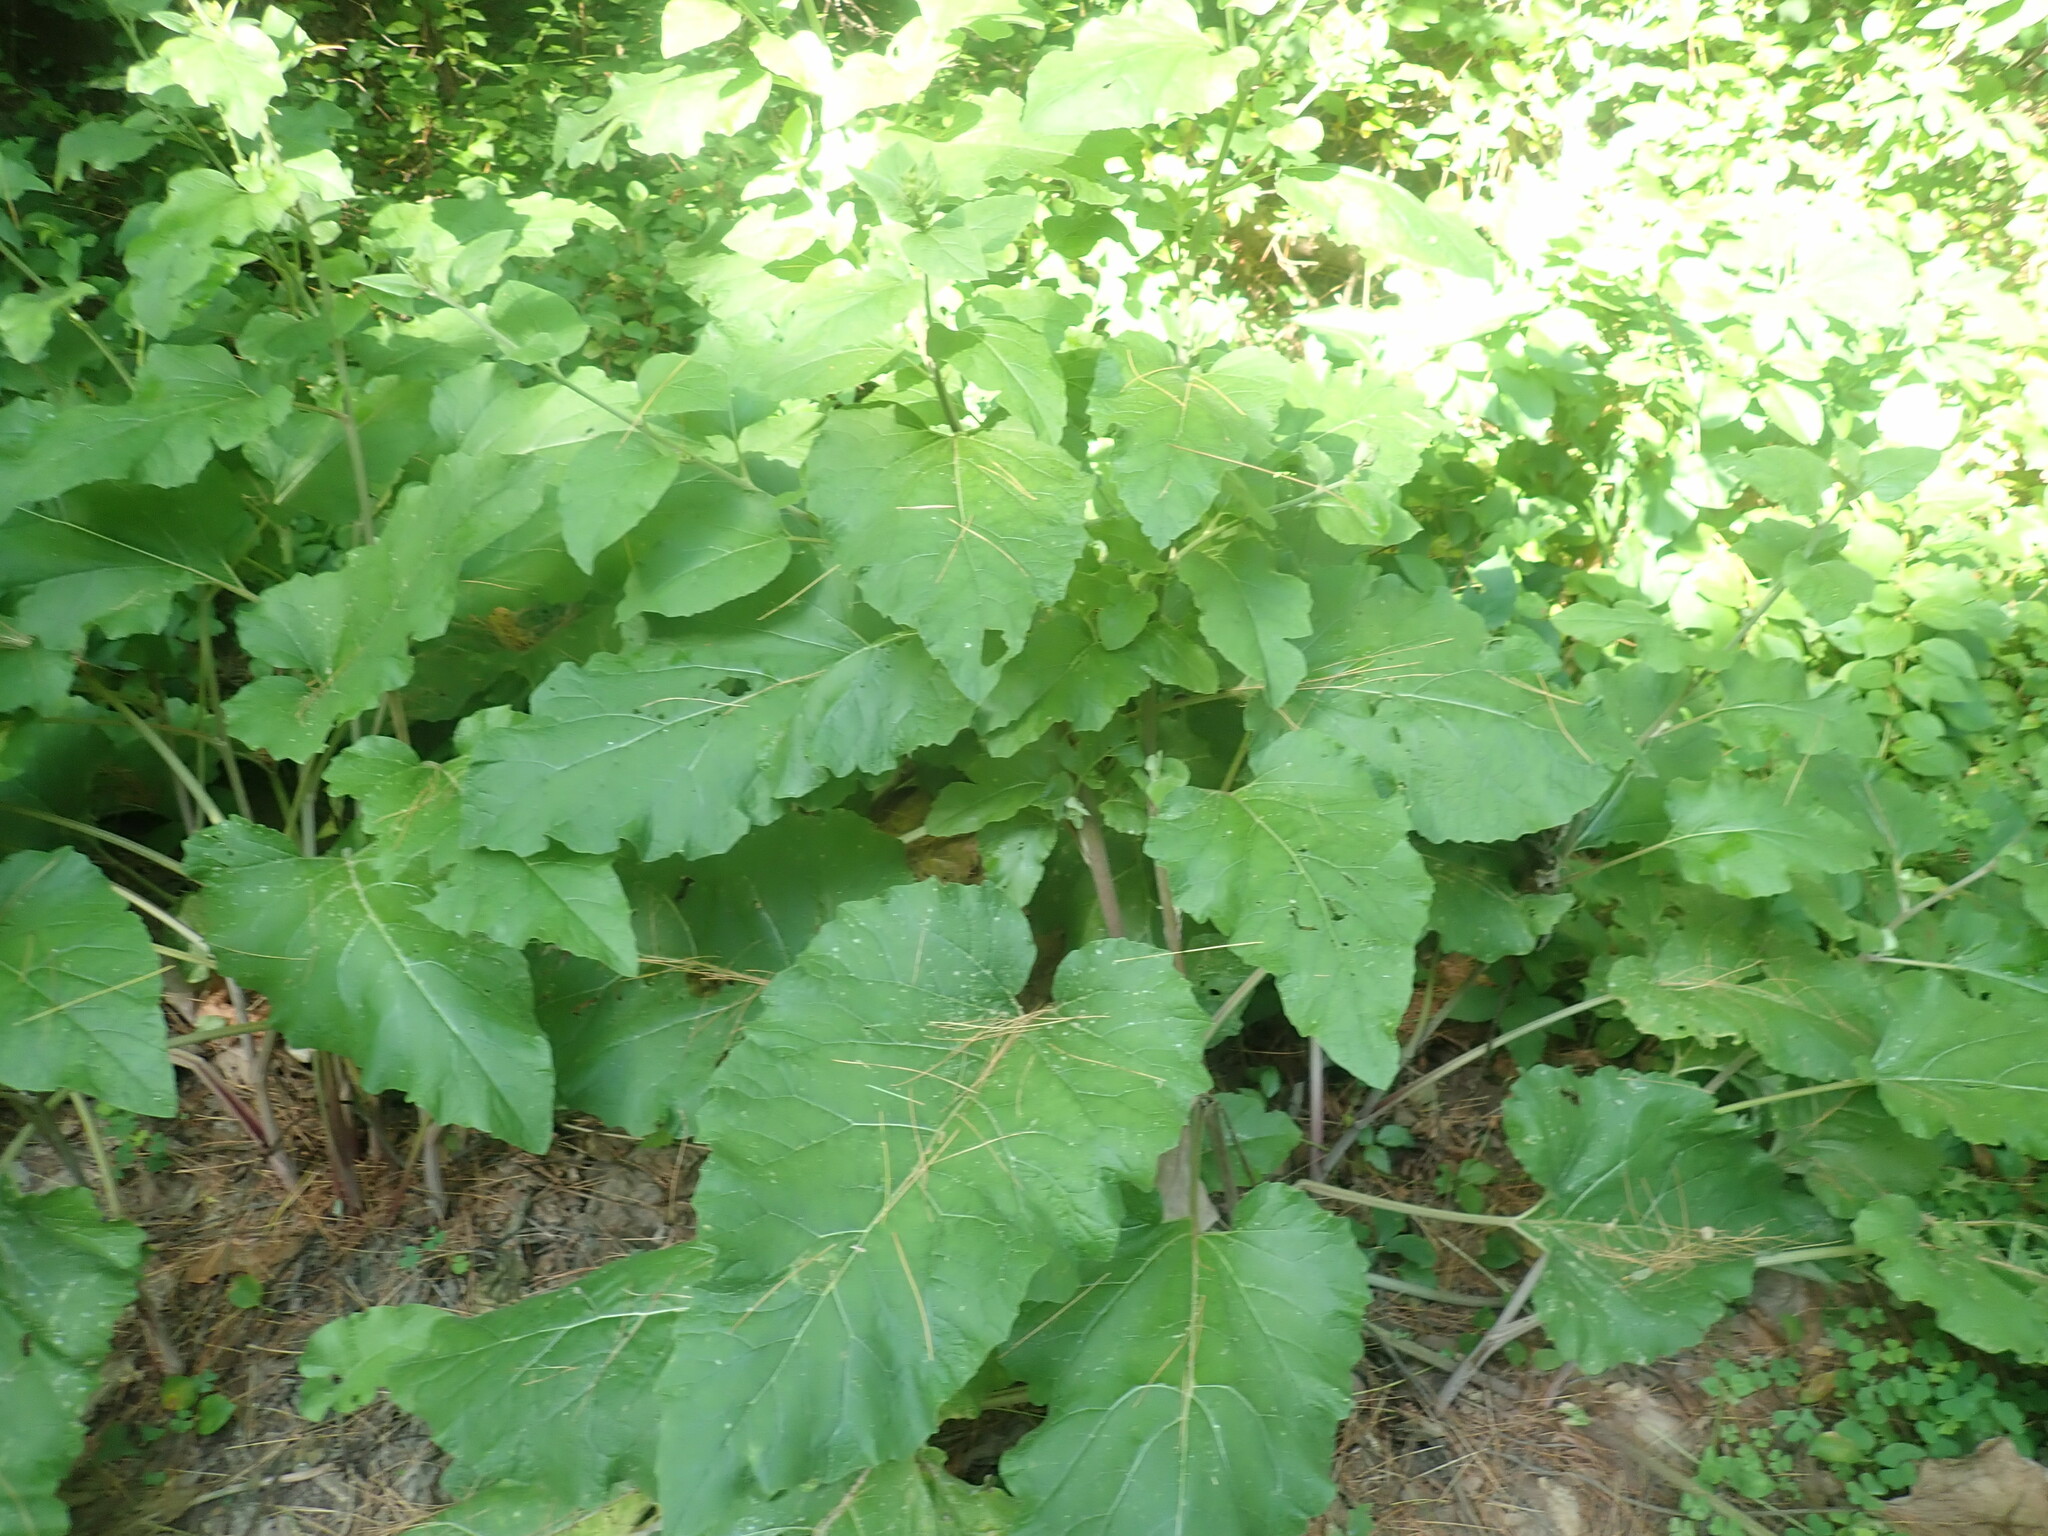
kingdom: Plantae
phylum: Tracheophyta
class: Magnoliopsida
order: Asterales
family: Asteraceae
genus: Arctium
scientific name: Arctium minus
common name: Lesser burdock
